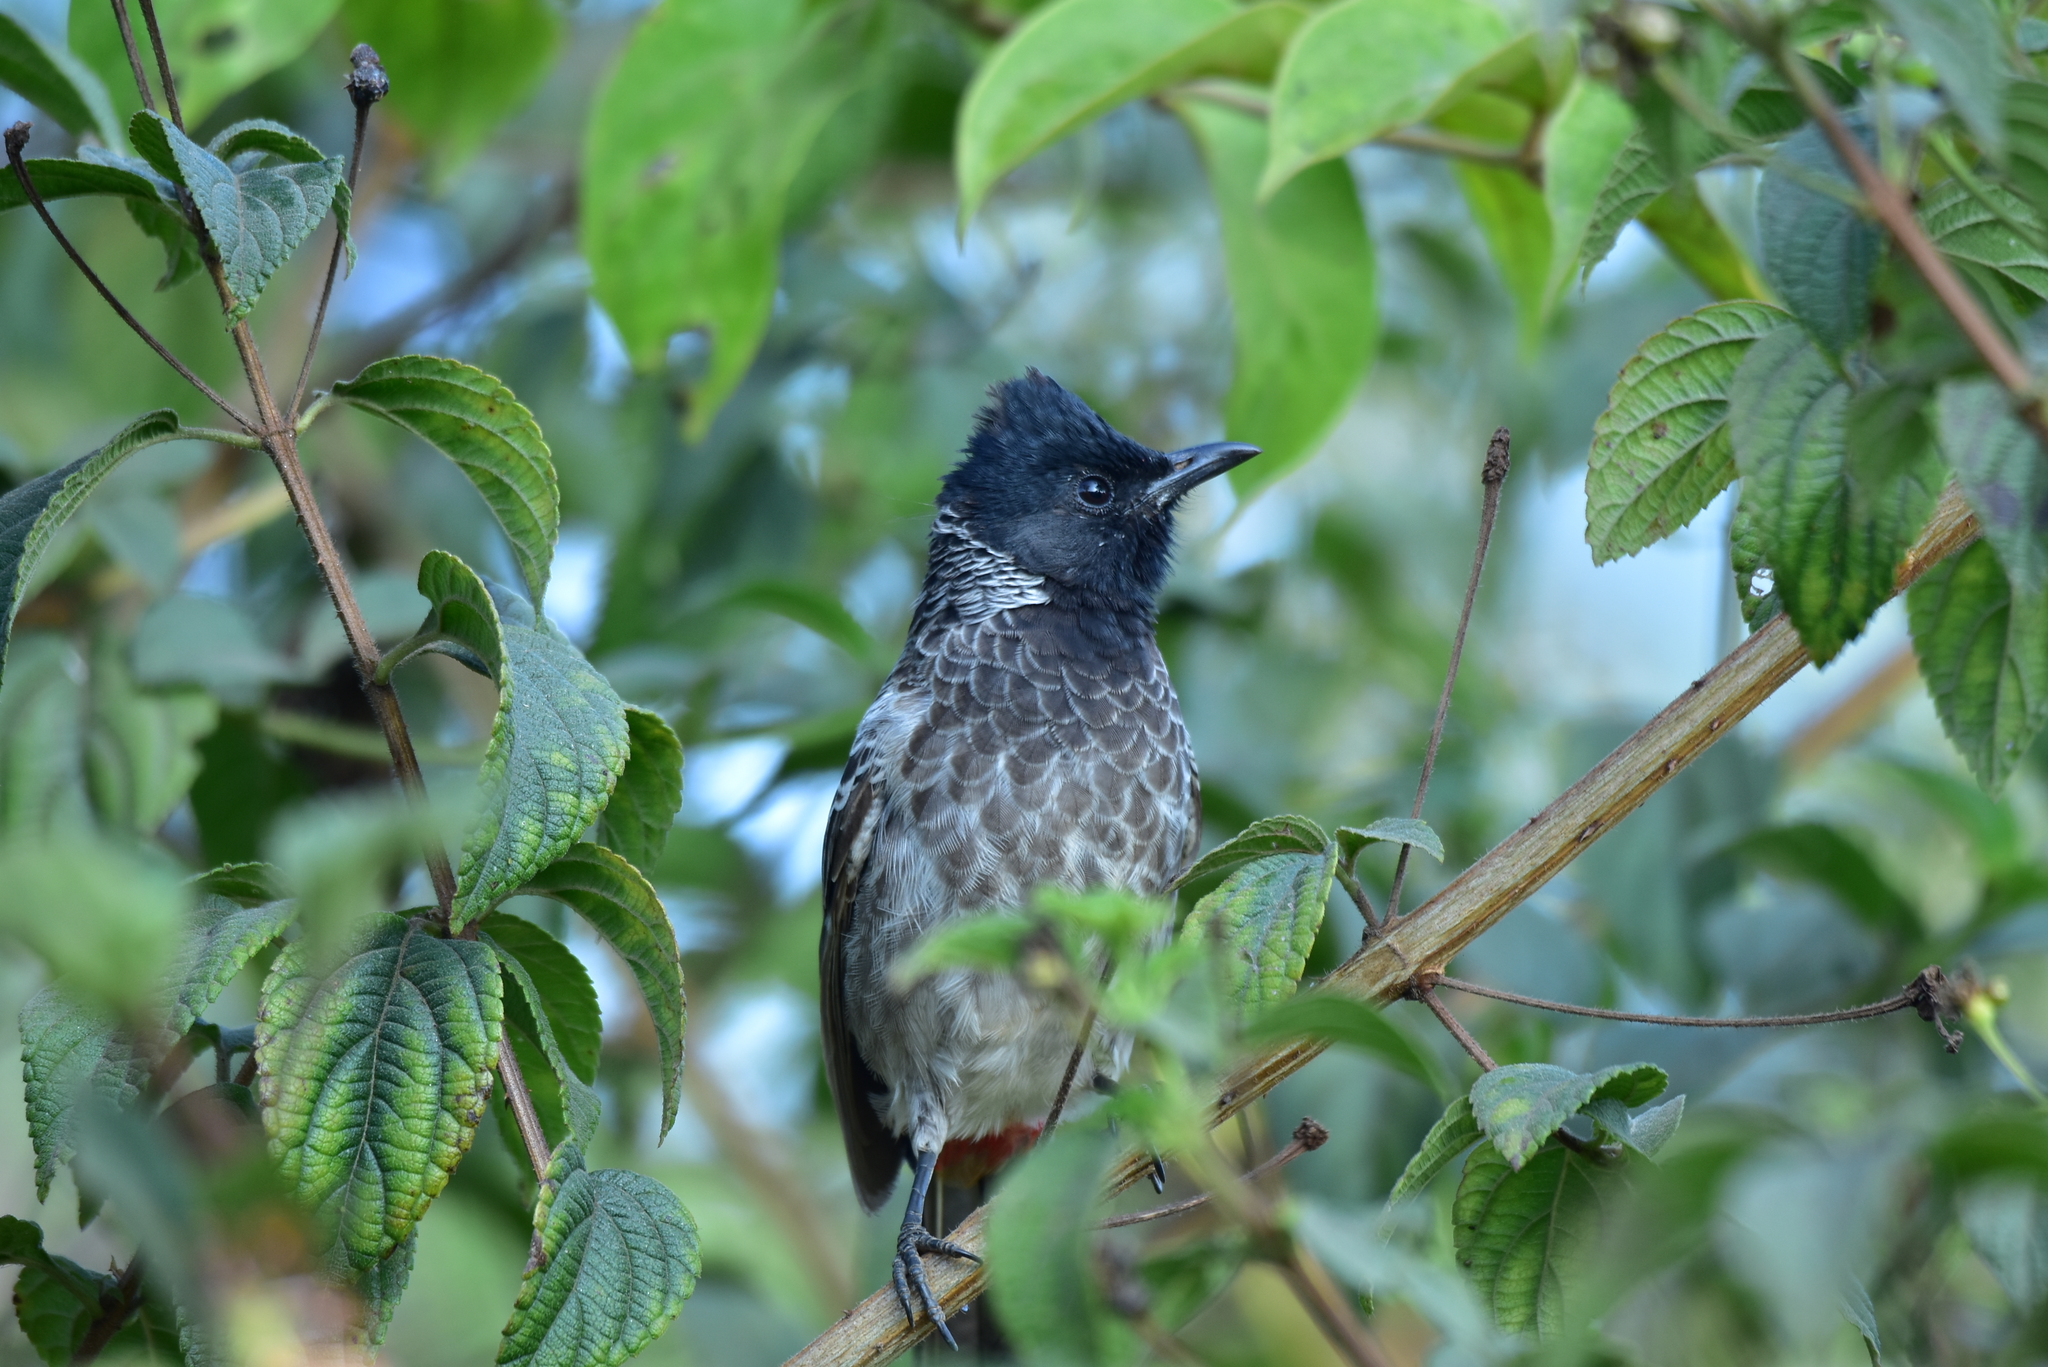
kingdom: Animalia
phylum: Chordata
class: Aves
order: Passeriformes
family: Pycnonotidae
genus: Pycnonotus
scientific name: Pycnonotus cafer
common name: Red-vented bulbul
